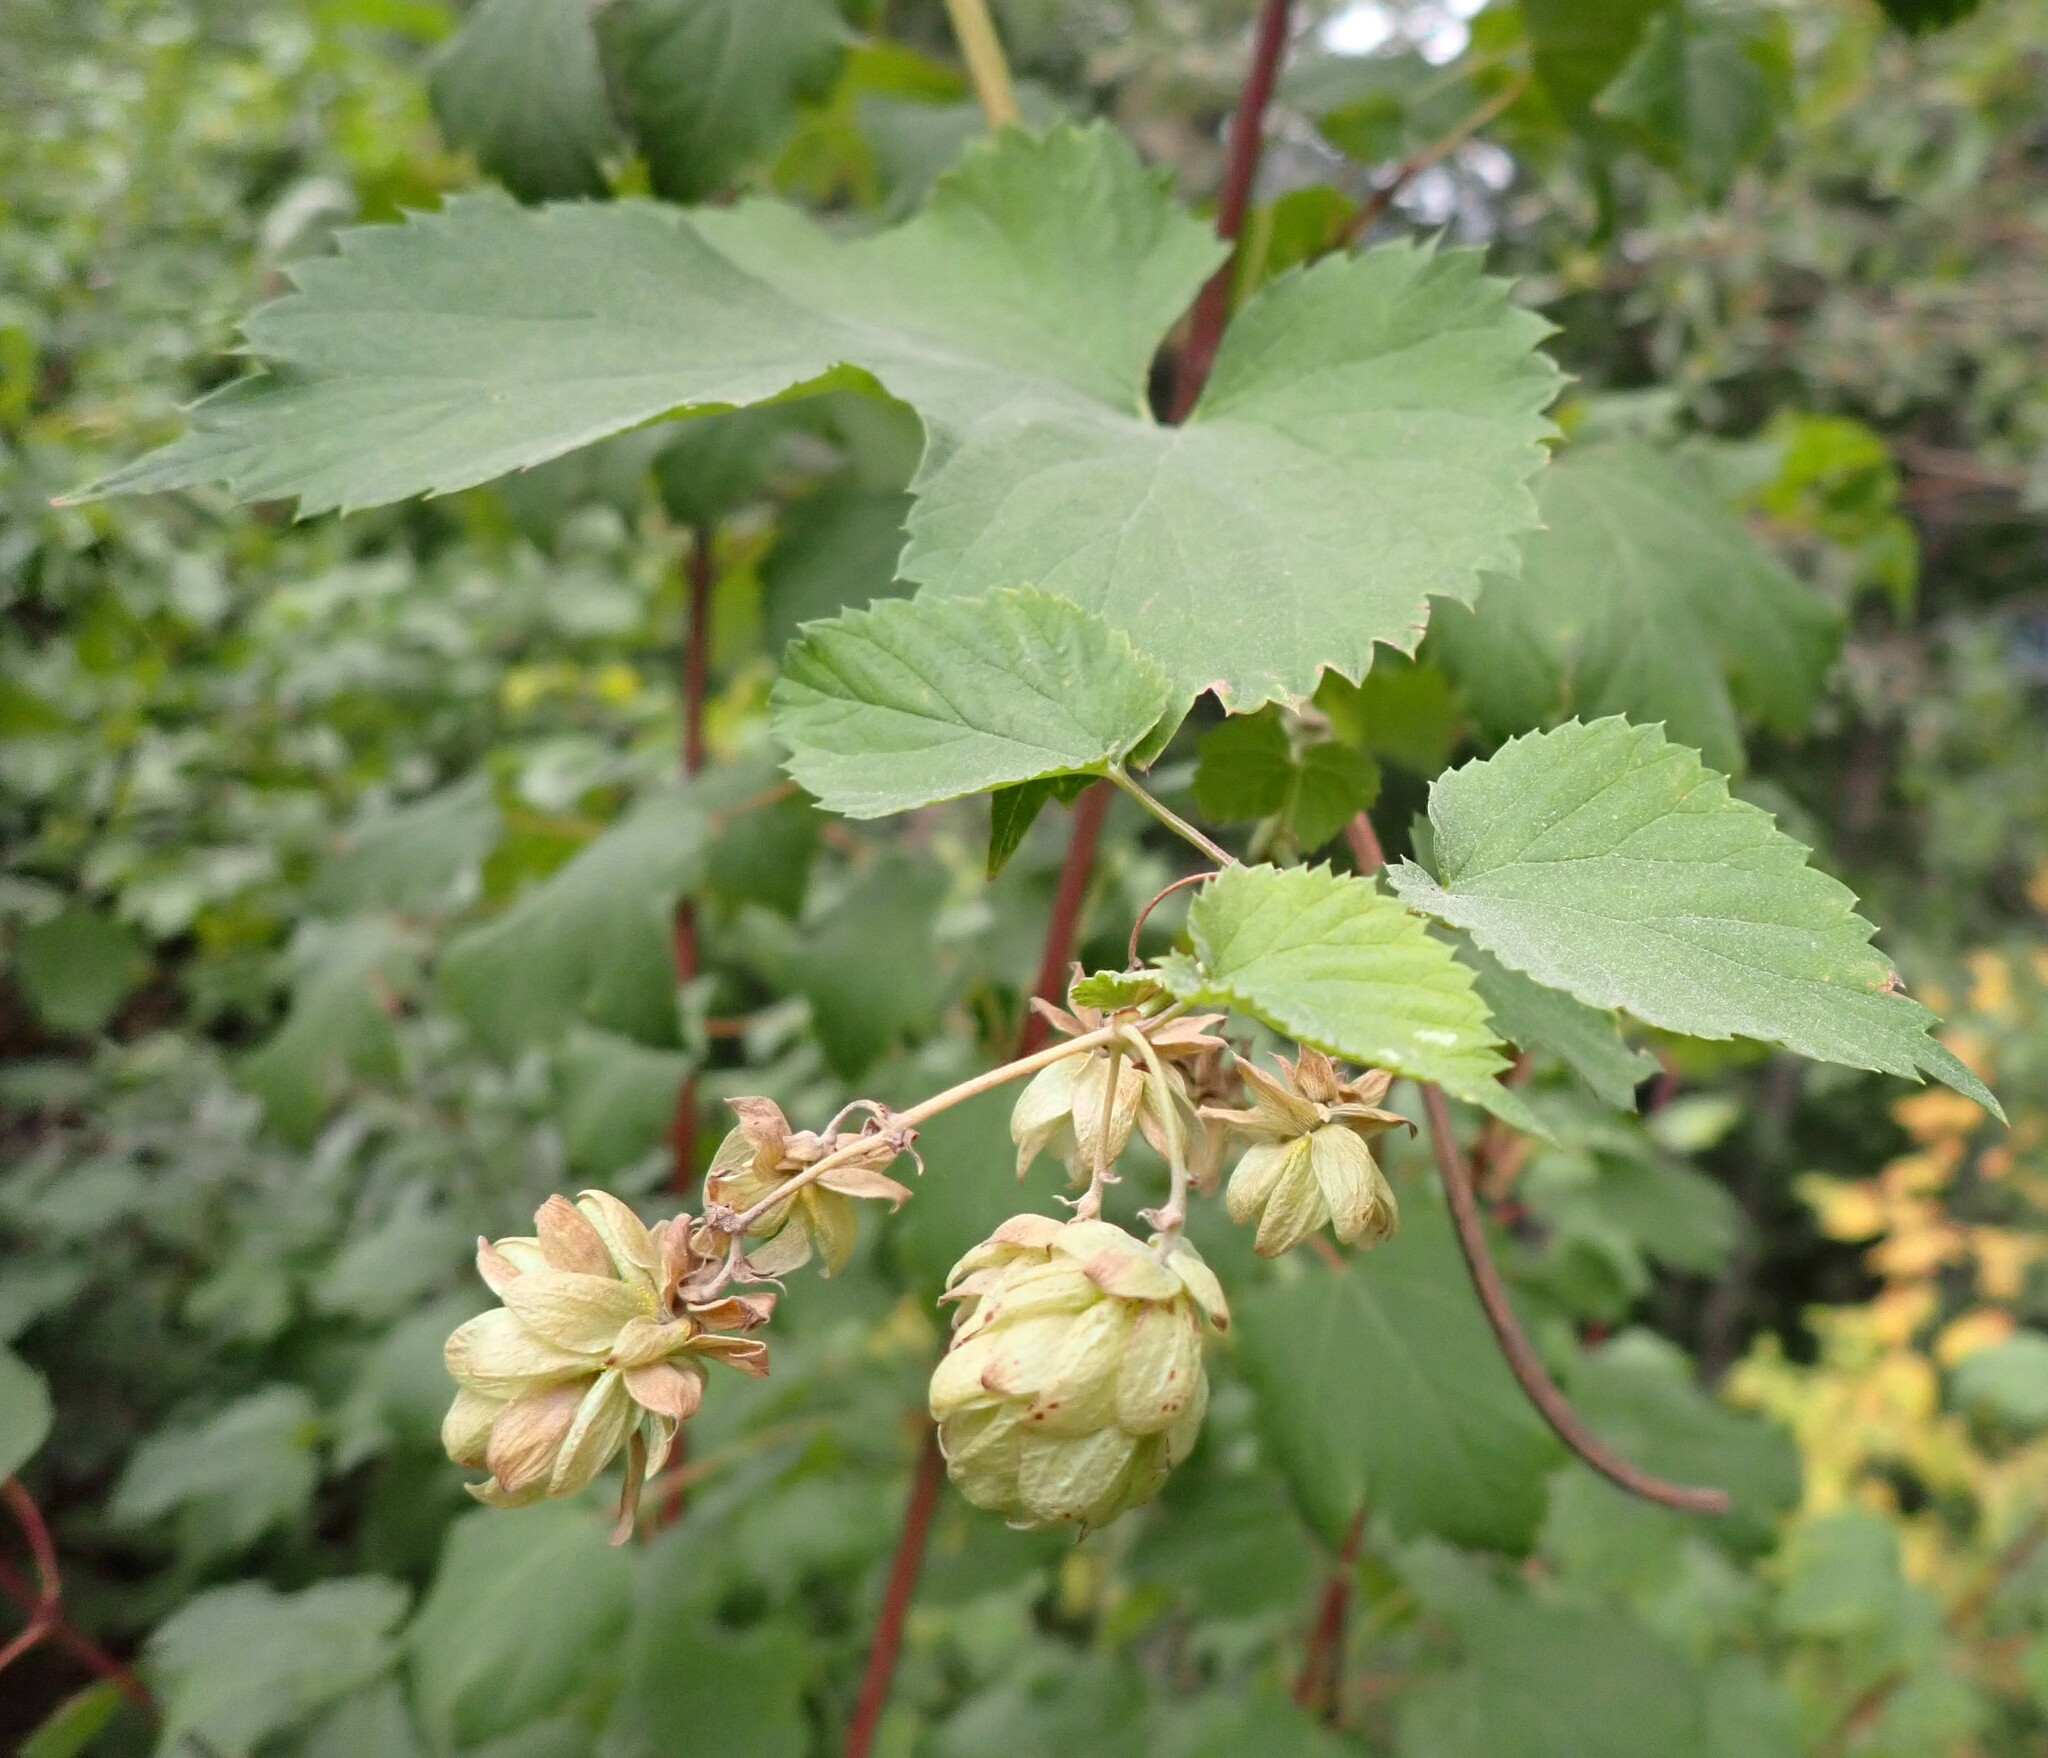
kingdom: Plantae
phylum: Tracheophyta
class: Magnoliopsida
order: Rosales
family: Cannabaceae
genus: Humulus
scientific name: Humulus lupulus
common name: Hop
